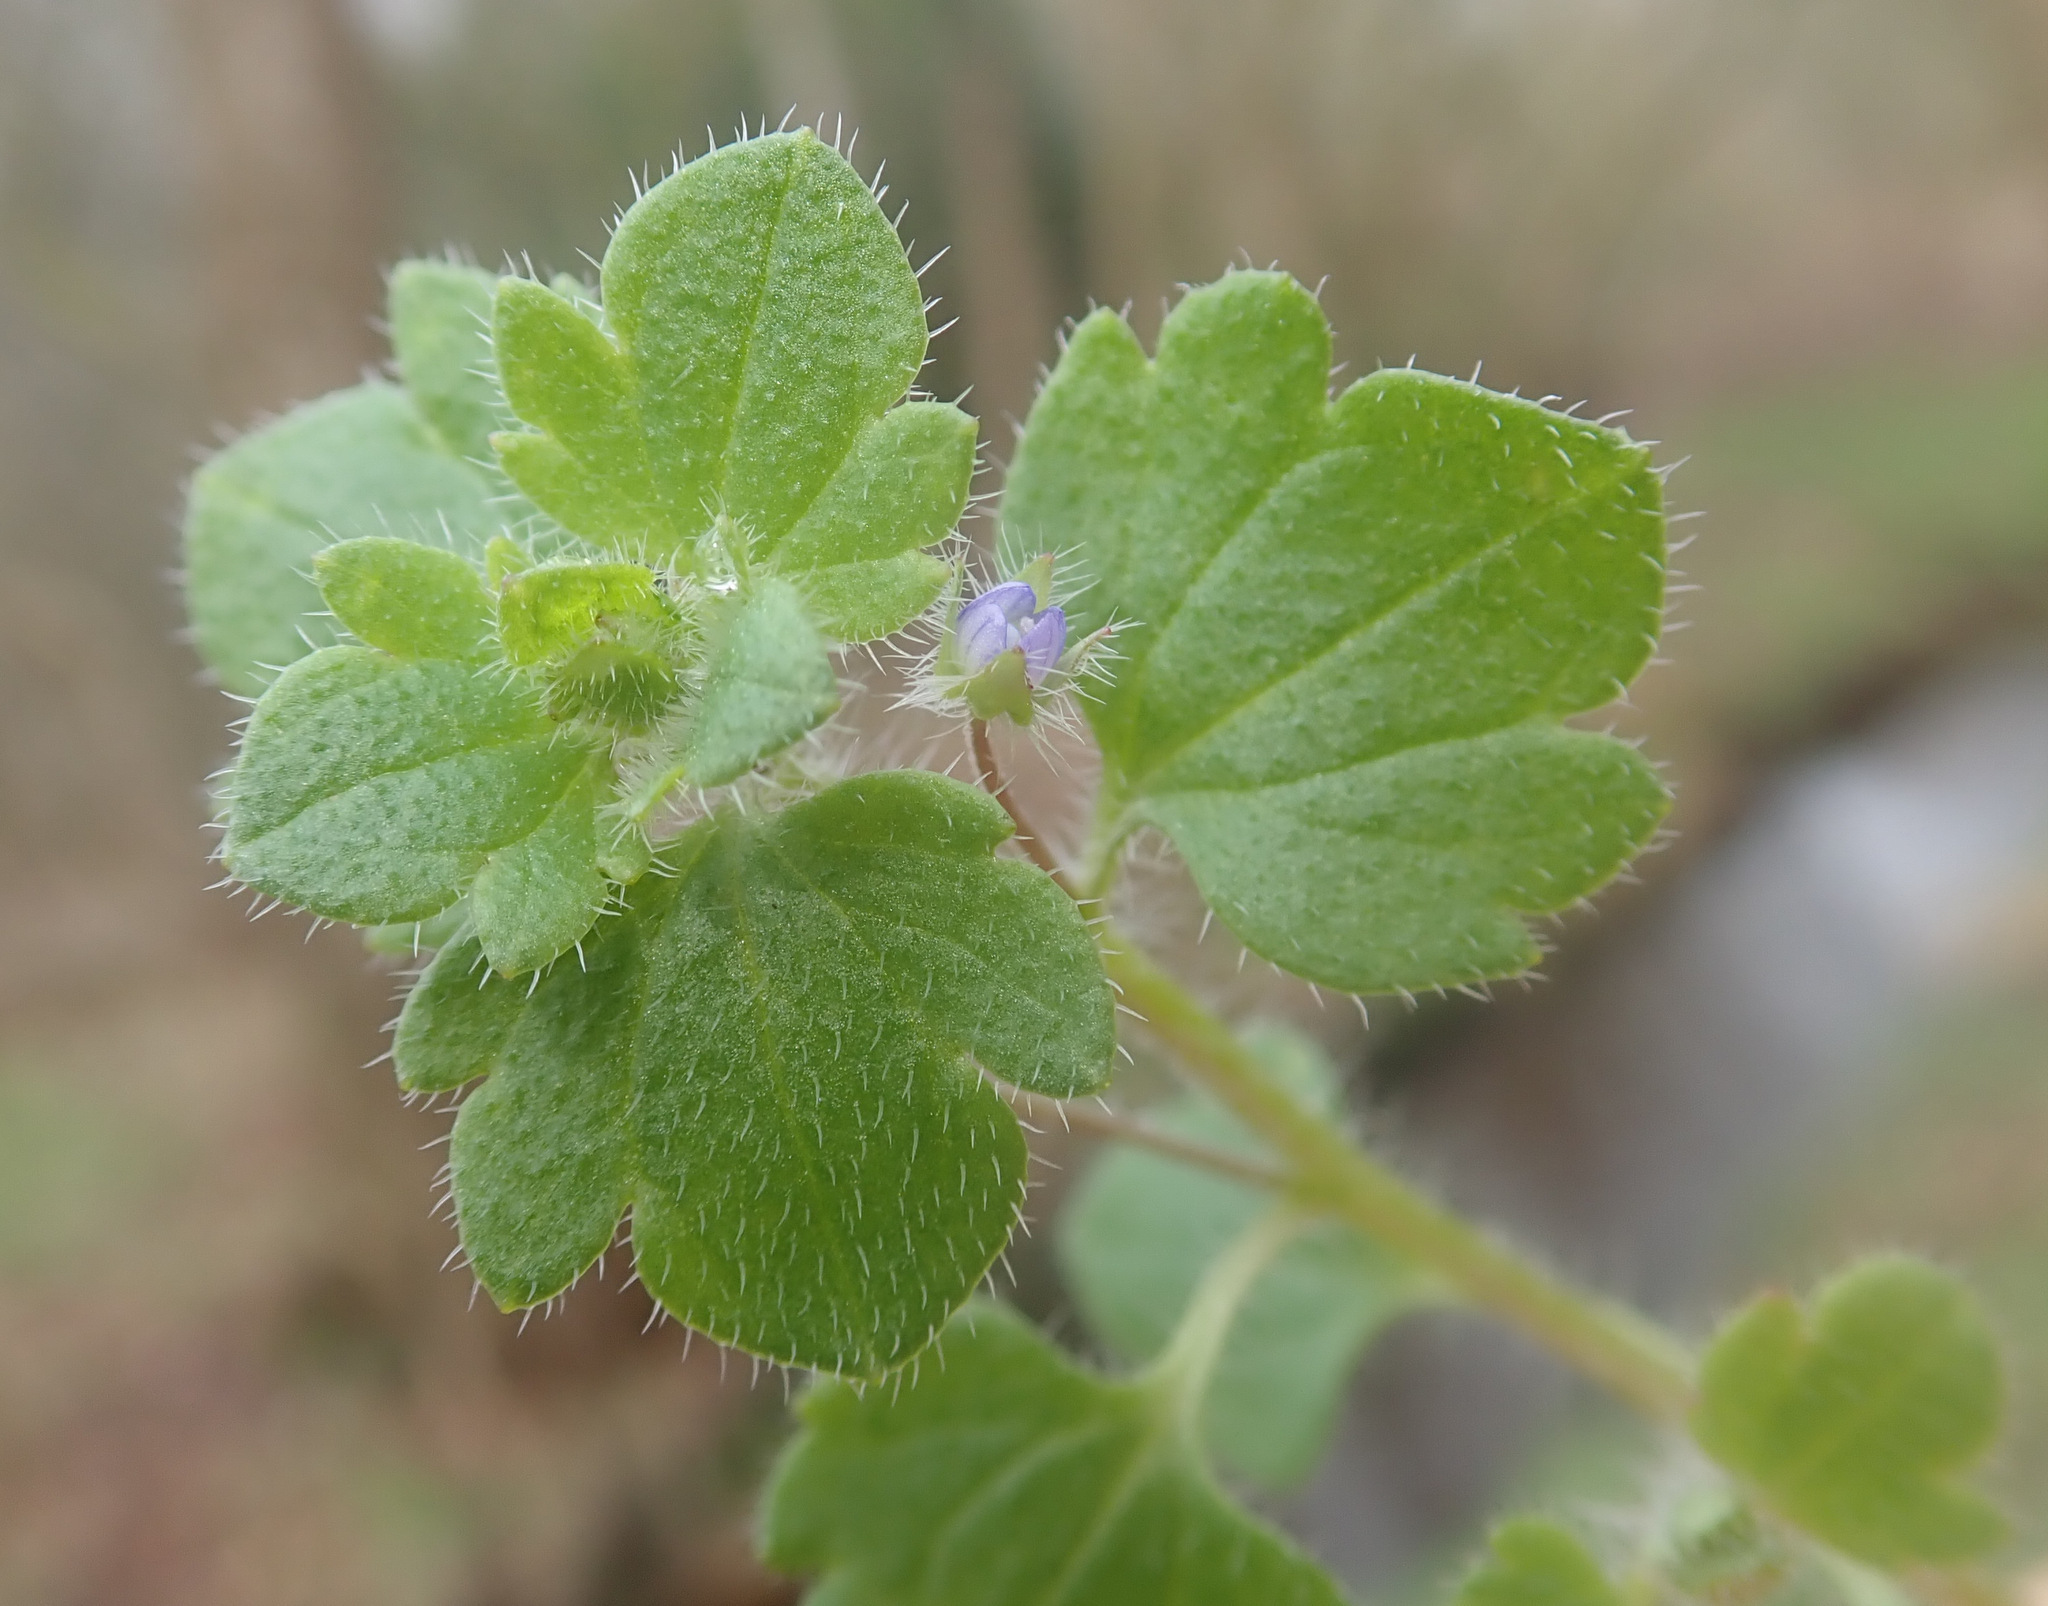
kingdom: Plantae
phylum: Tracheophyta
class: Magnoliopsida
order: Lamiales
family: Plantaginaceae
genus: Veronica
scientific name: Veronica sublobata
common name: False ivy-leaved speedwell
